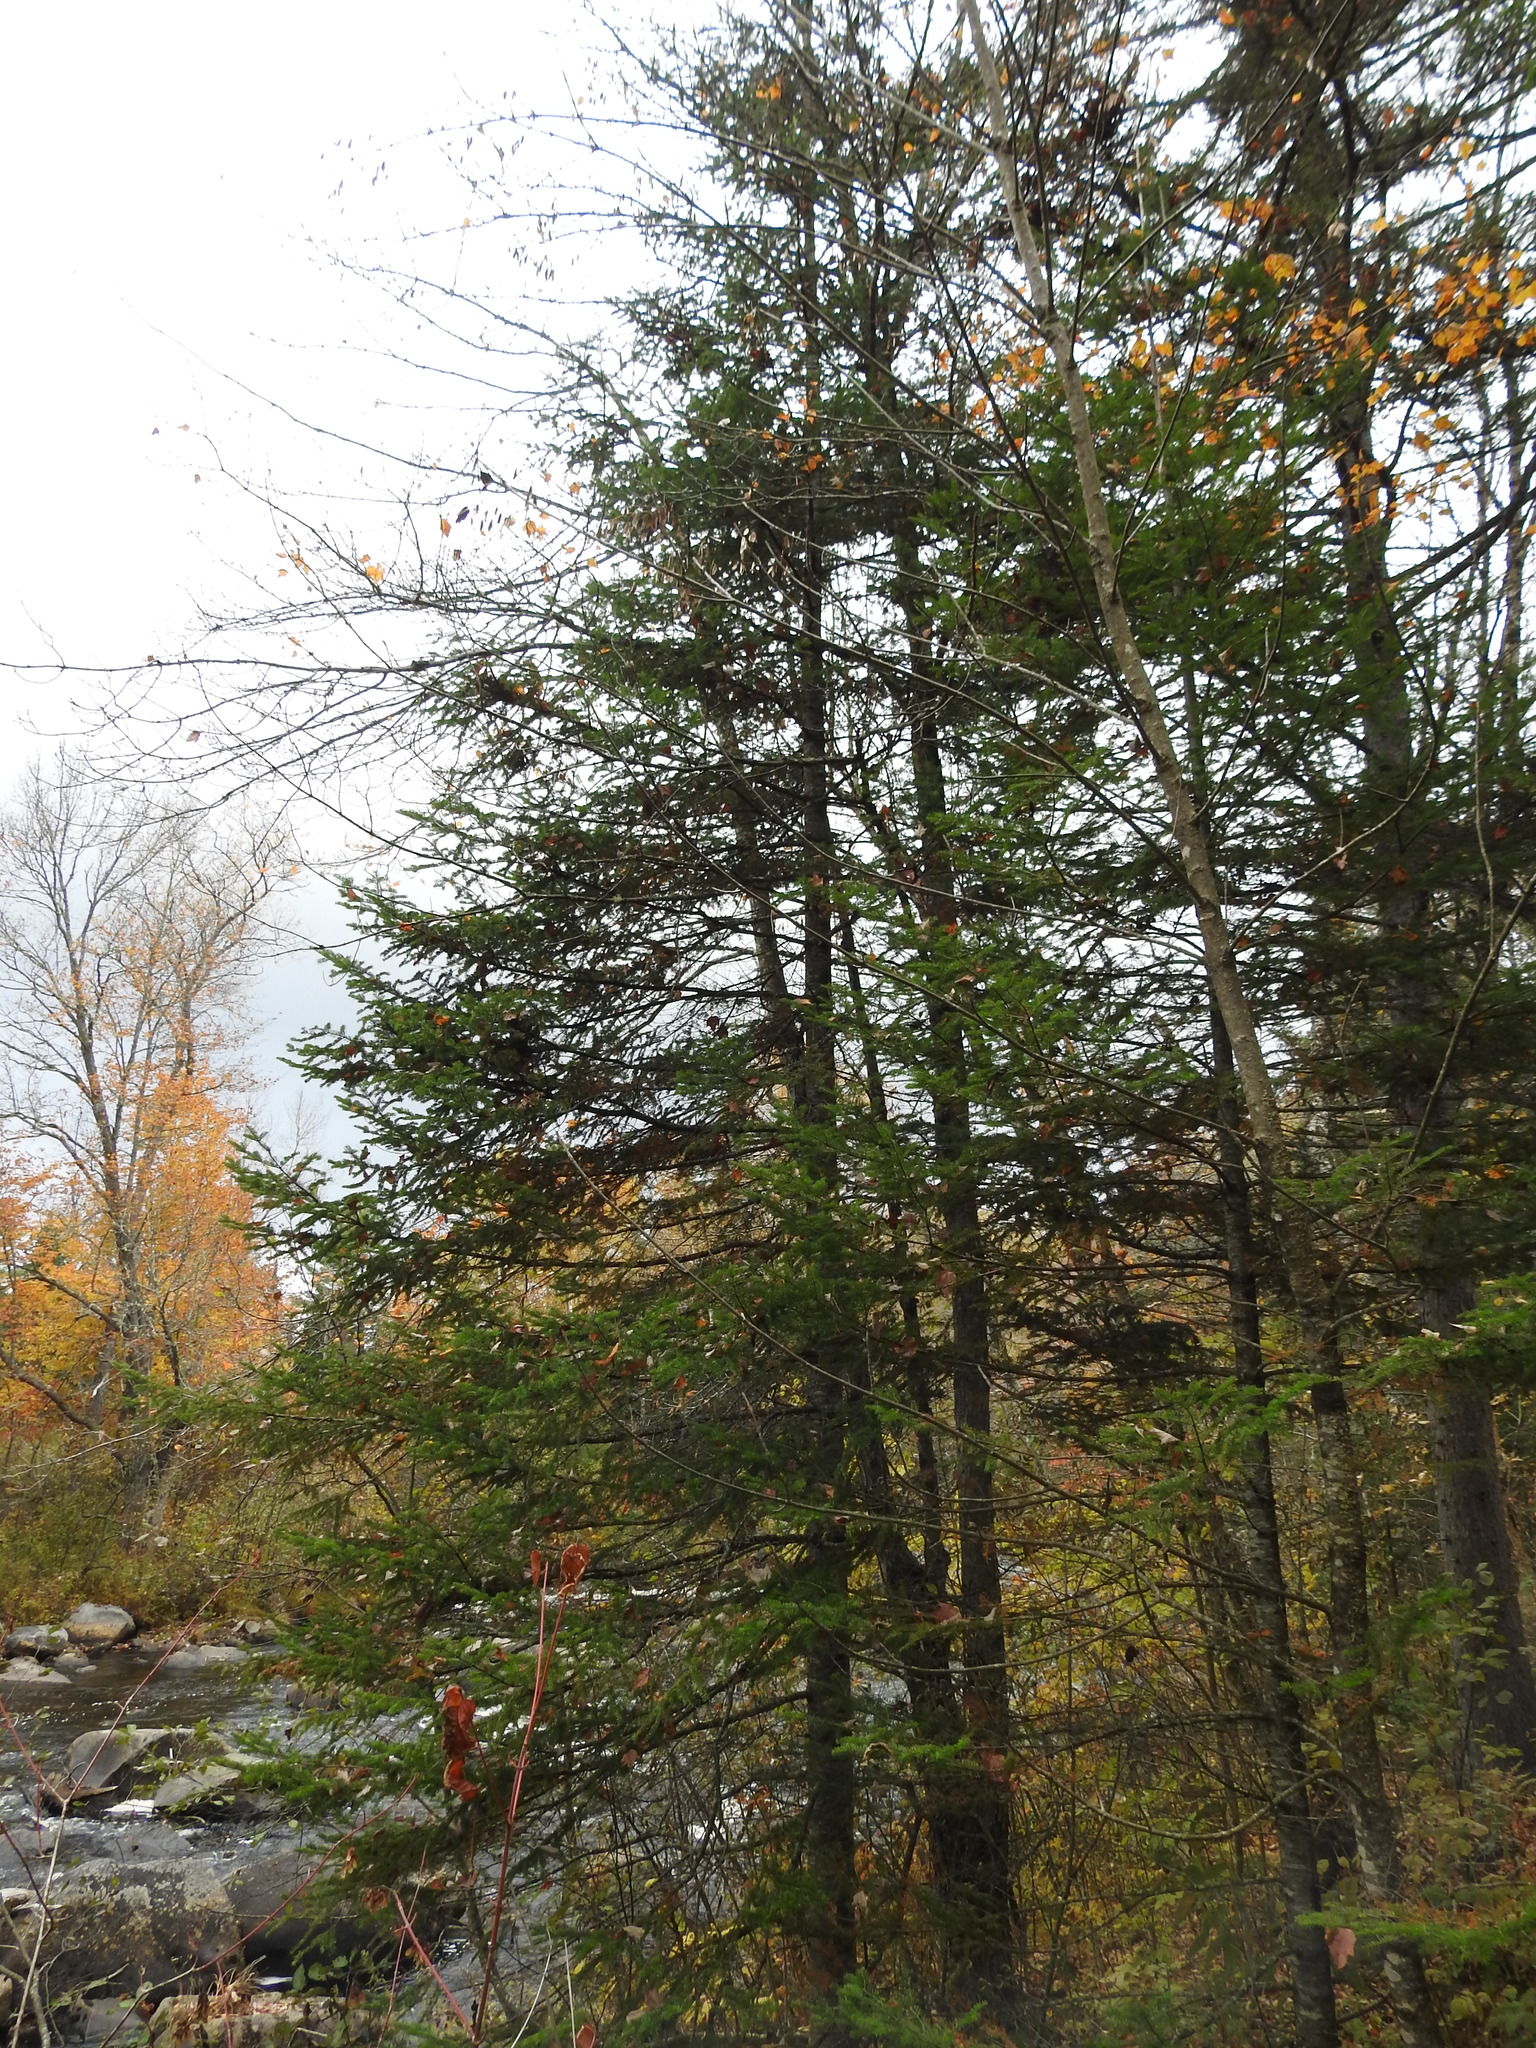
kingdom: Plantae
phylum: Tracheophyta
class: Pinopsida
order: Pinales
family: Pinaceae
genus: Abies
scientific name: Abies balsamea
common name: Balsam fir
